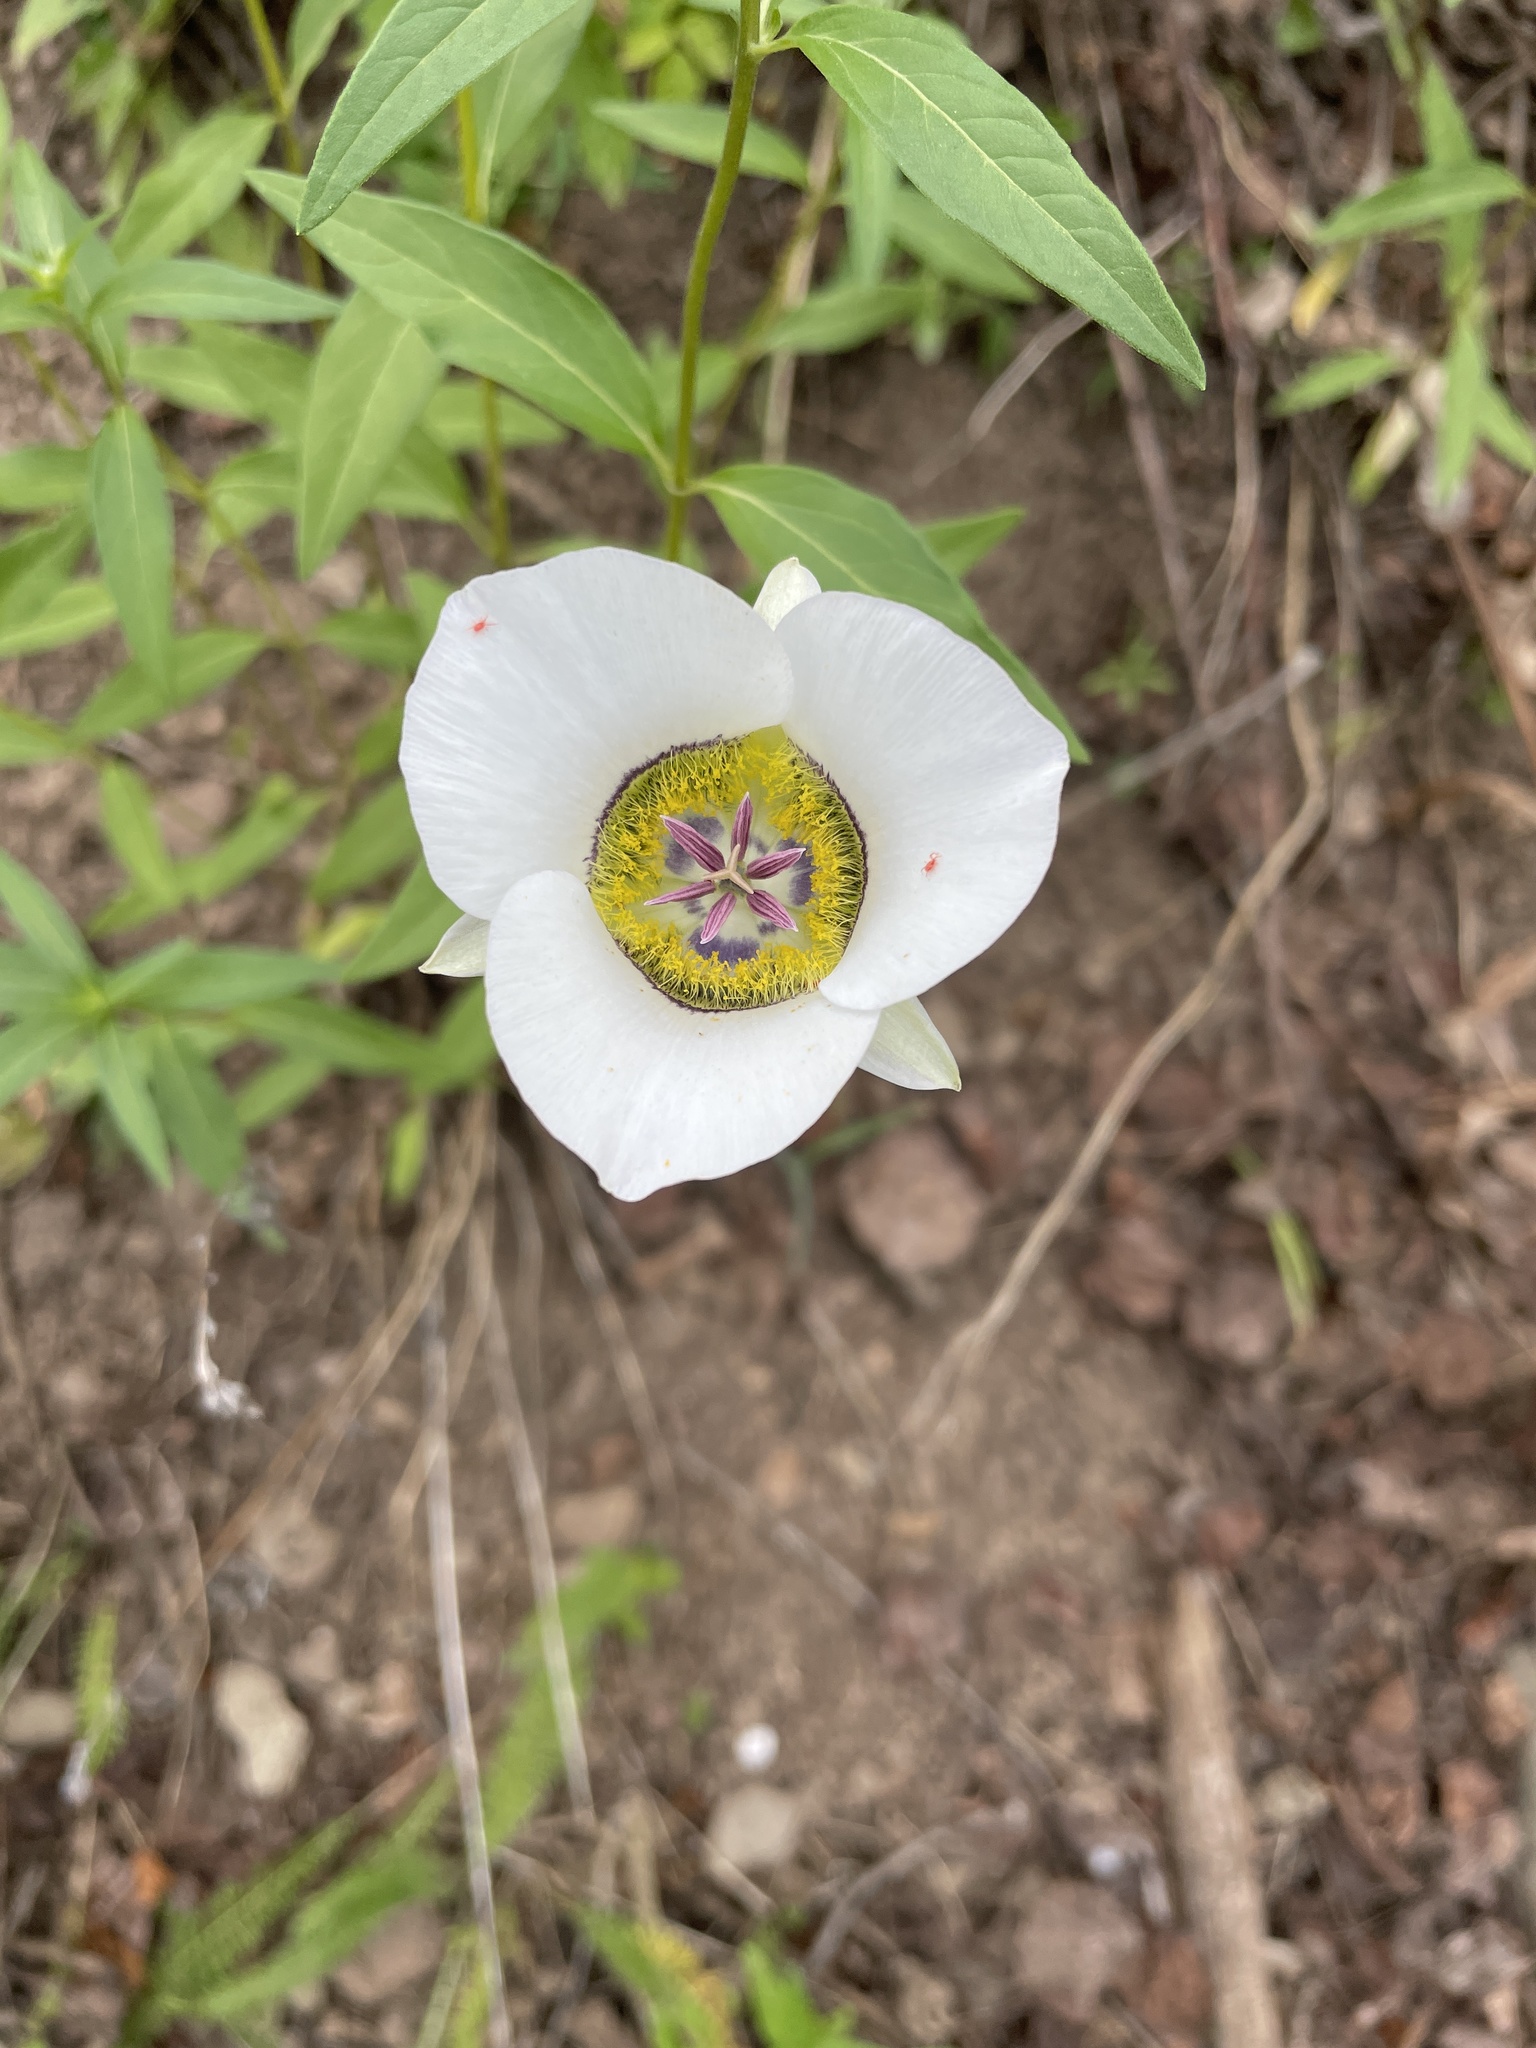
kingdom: Plantae
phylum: Tracheophyta
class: Liliopsida
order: Liliales
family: Liliaceae
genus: Calochortus
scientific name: Calochortus gunnisonii
